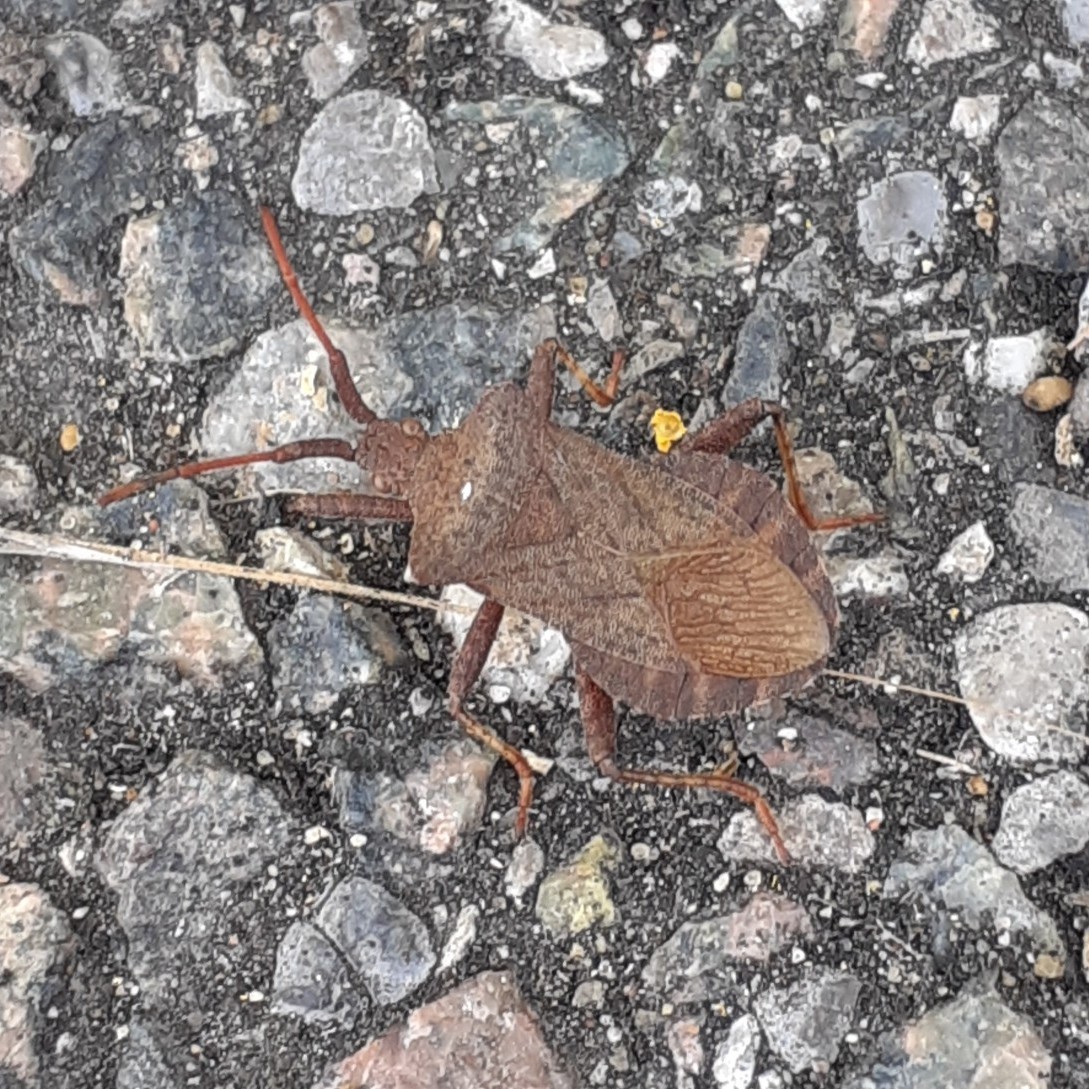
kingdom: Animalia
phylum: Arthropoda
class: Insecta
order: Hemiptera
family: Coreidae
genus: Coreus
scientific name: Coreus marginatus
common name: Dock bug
